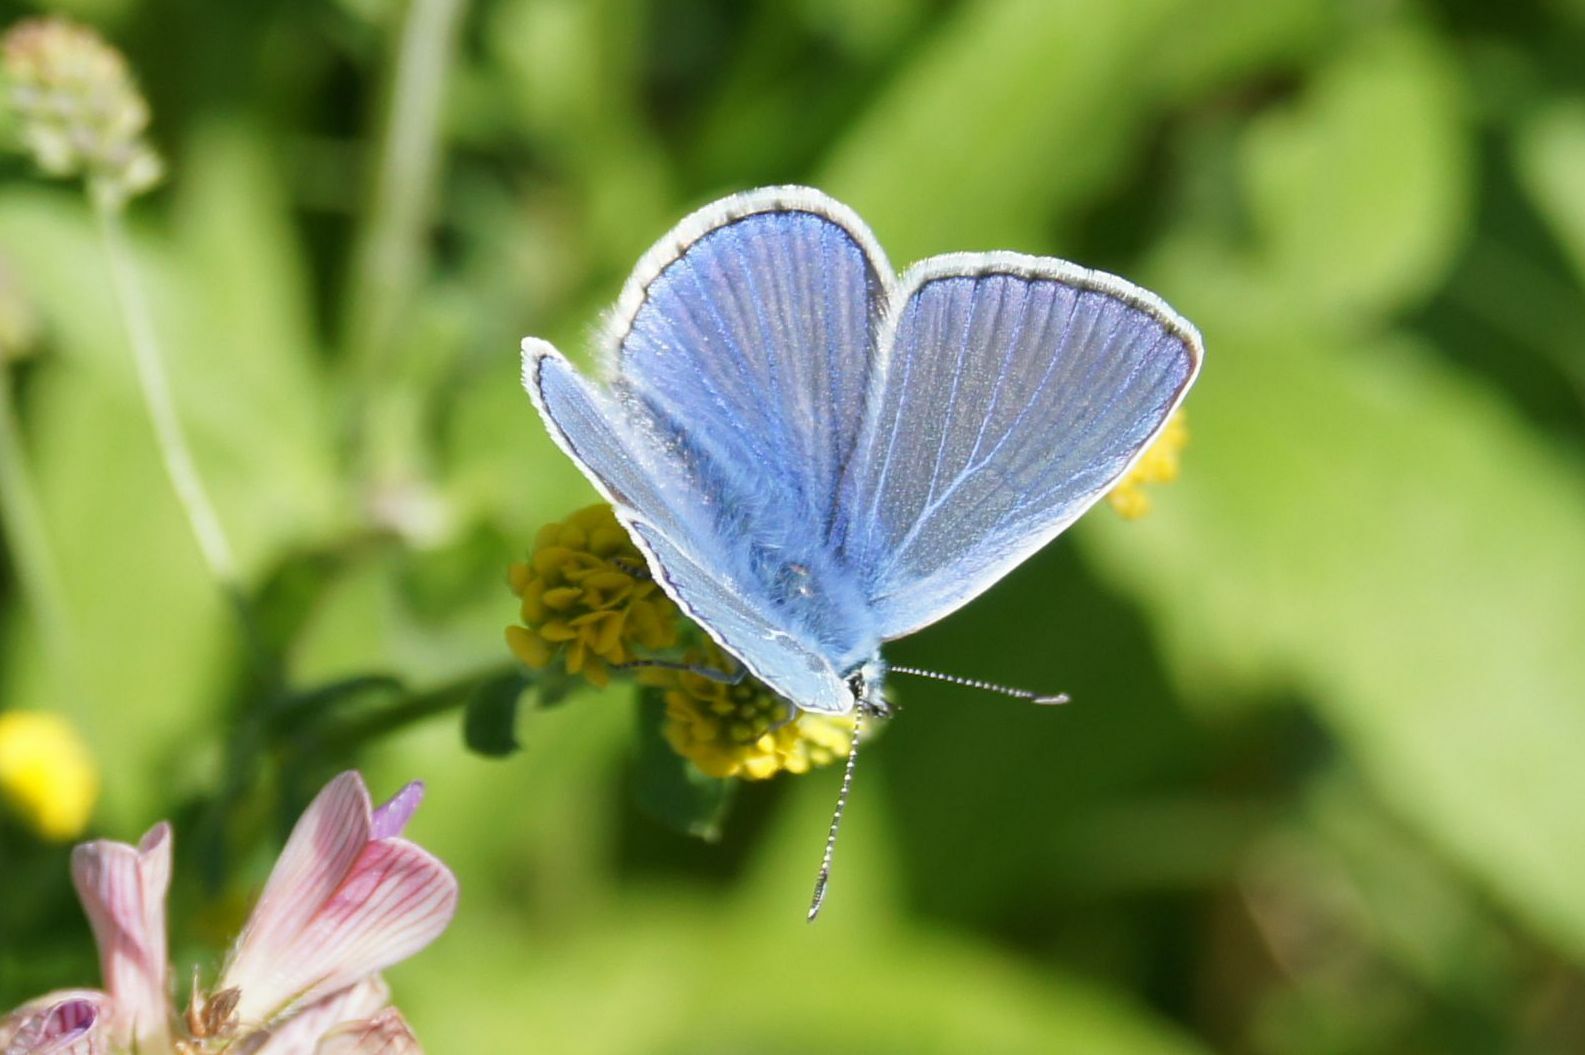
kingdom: Animalia
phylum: Arthropoda
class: Insecta
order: Lepidoptera
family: Lycaenidae
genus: Polyommatus
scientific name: Polyommatus icarus
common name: Common blue
